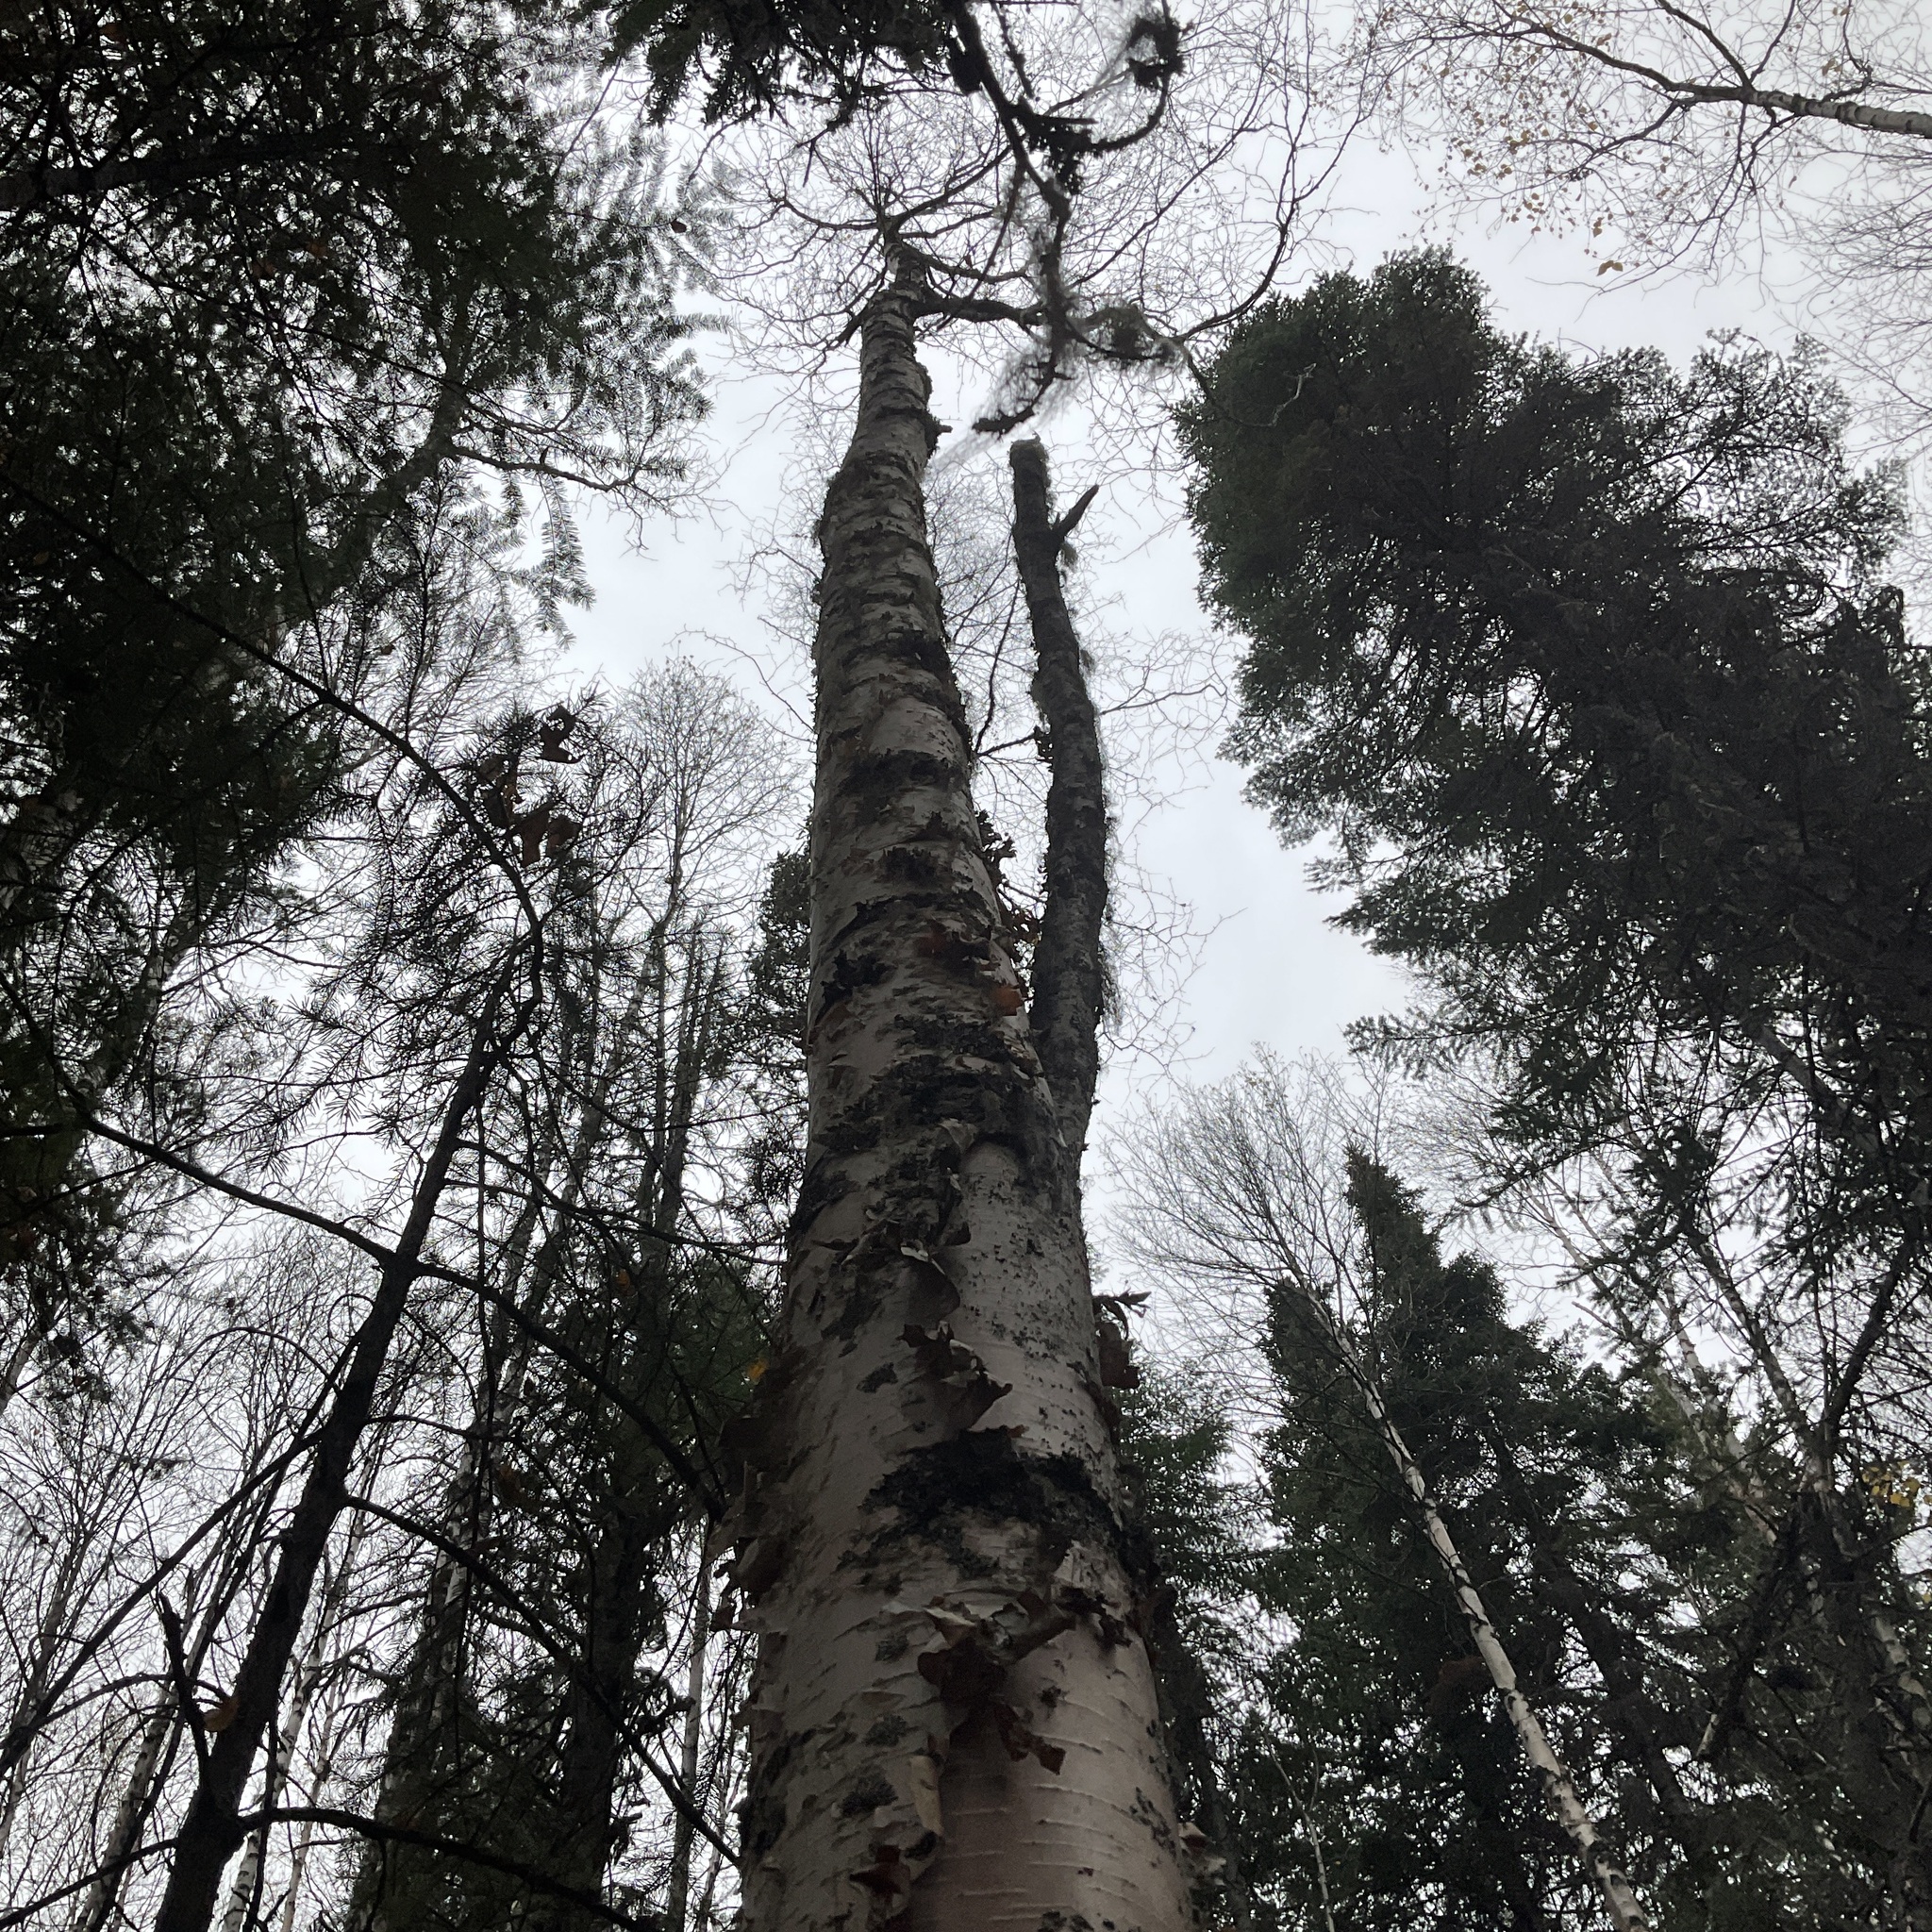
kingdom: Plantae
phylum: Tracheophyta
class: Magnoliopsida
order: Fagales
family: Betulaceae
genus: Betula
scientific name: Betula papyrifera
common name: Paper birch
